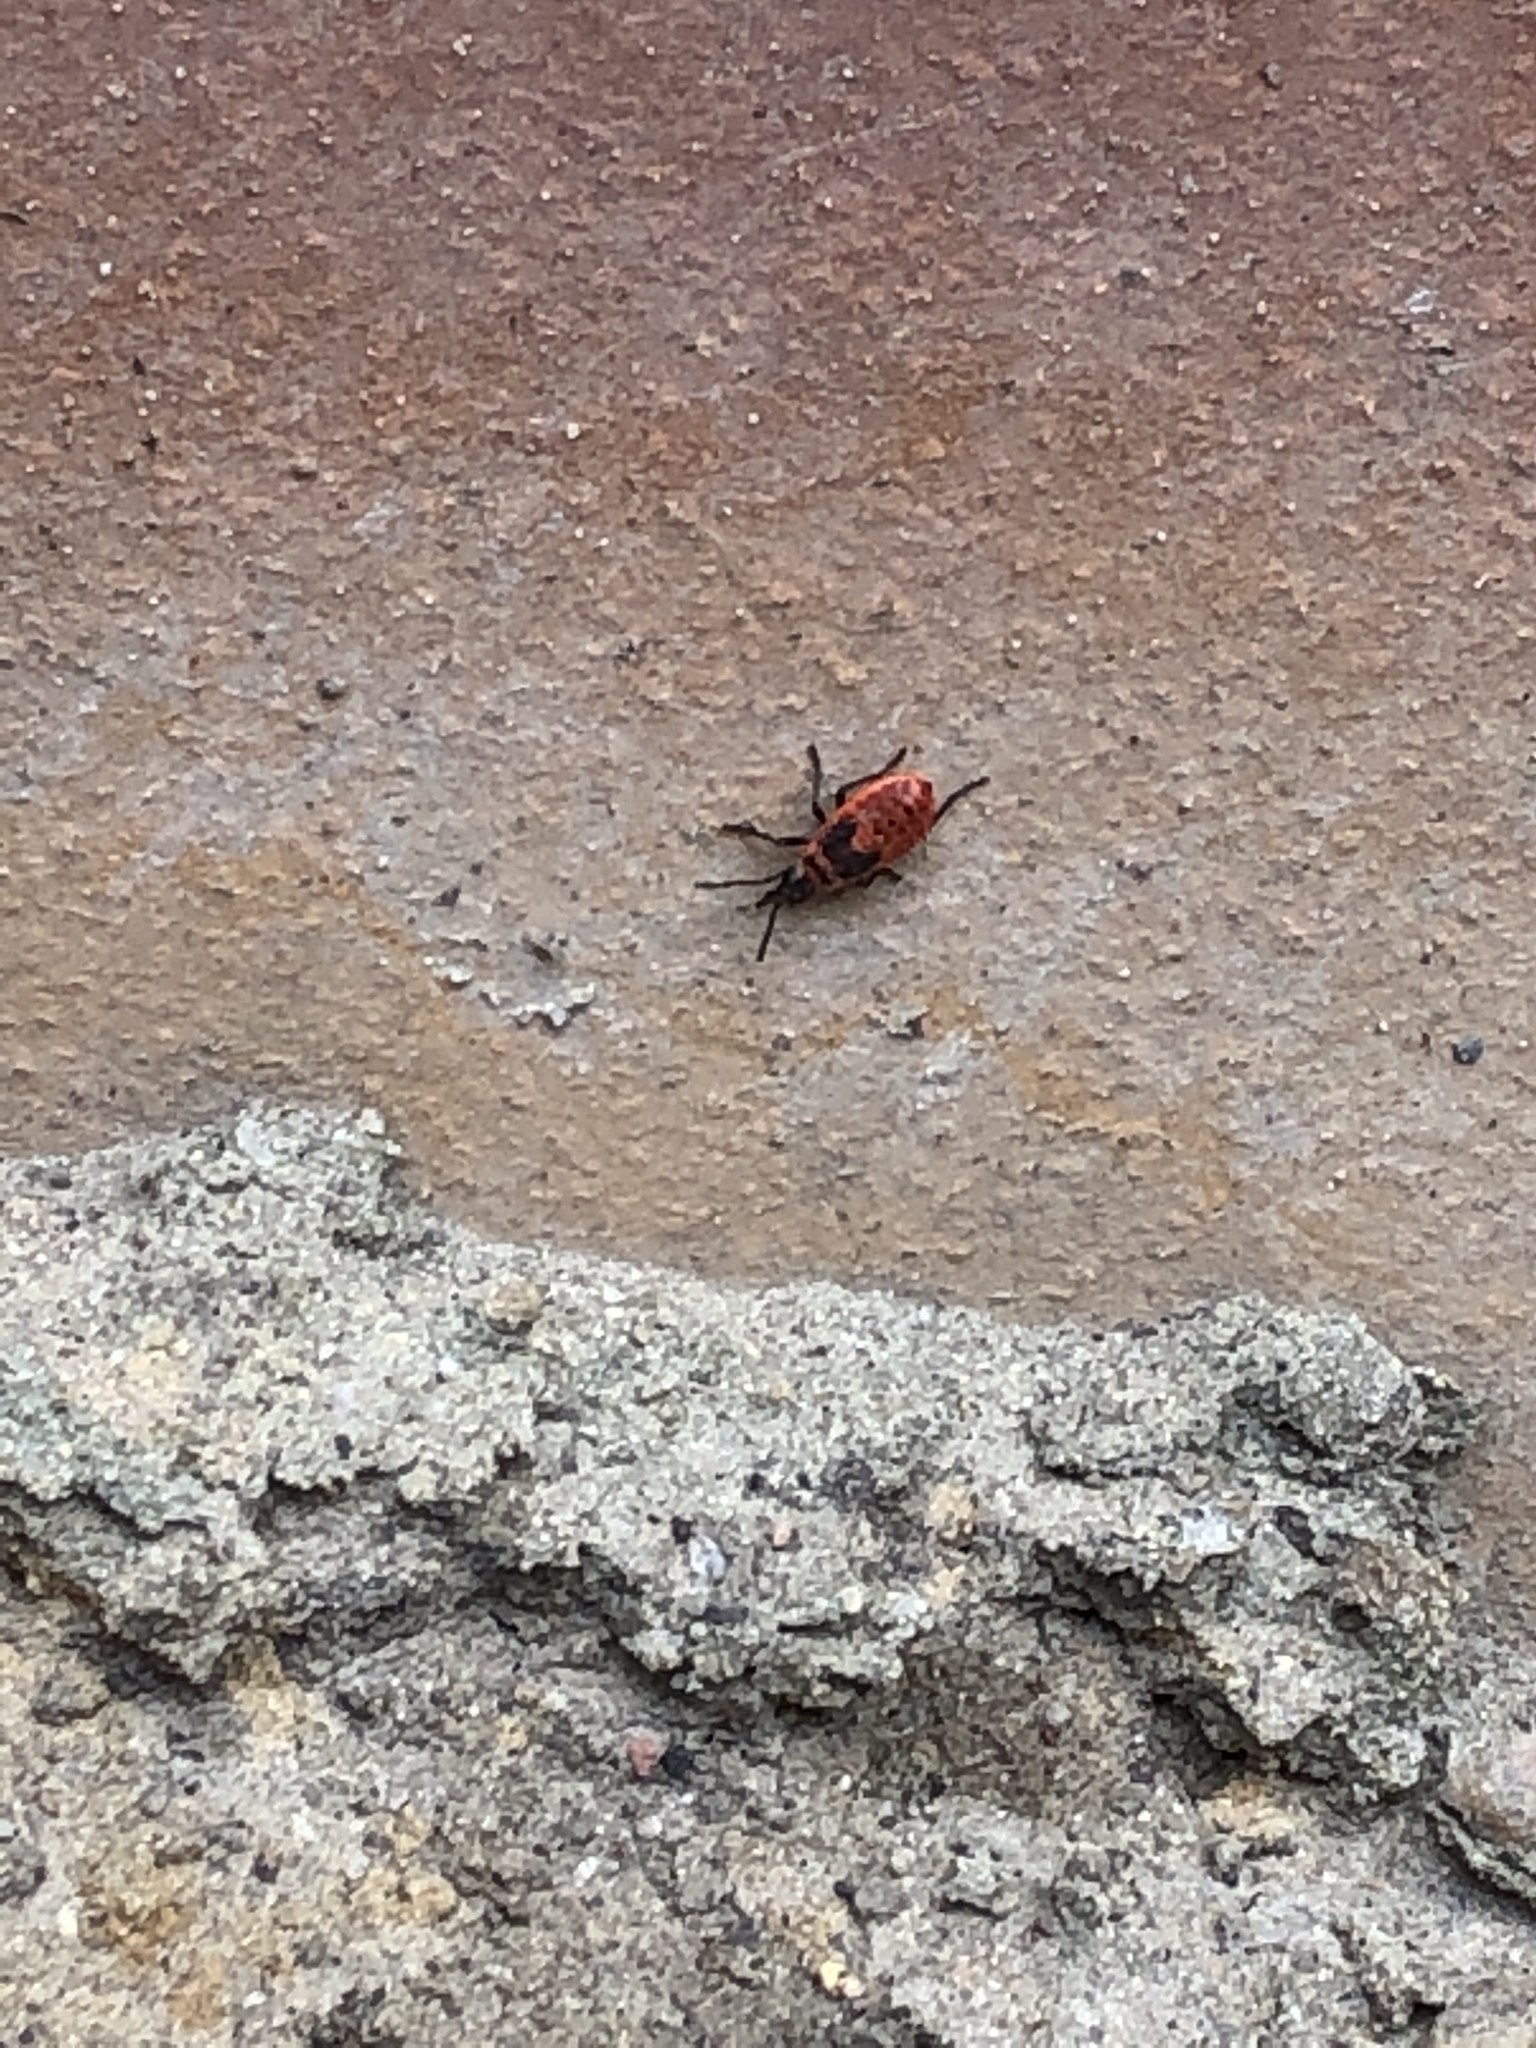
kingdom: Animalia
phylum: Arthropoda
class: Insecta
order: Hemiptera
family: Pyrrhocoridae
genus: Pyrrhocoris
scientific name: Pyrrhocoris apterus
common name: Firebug
